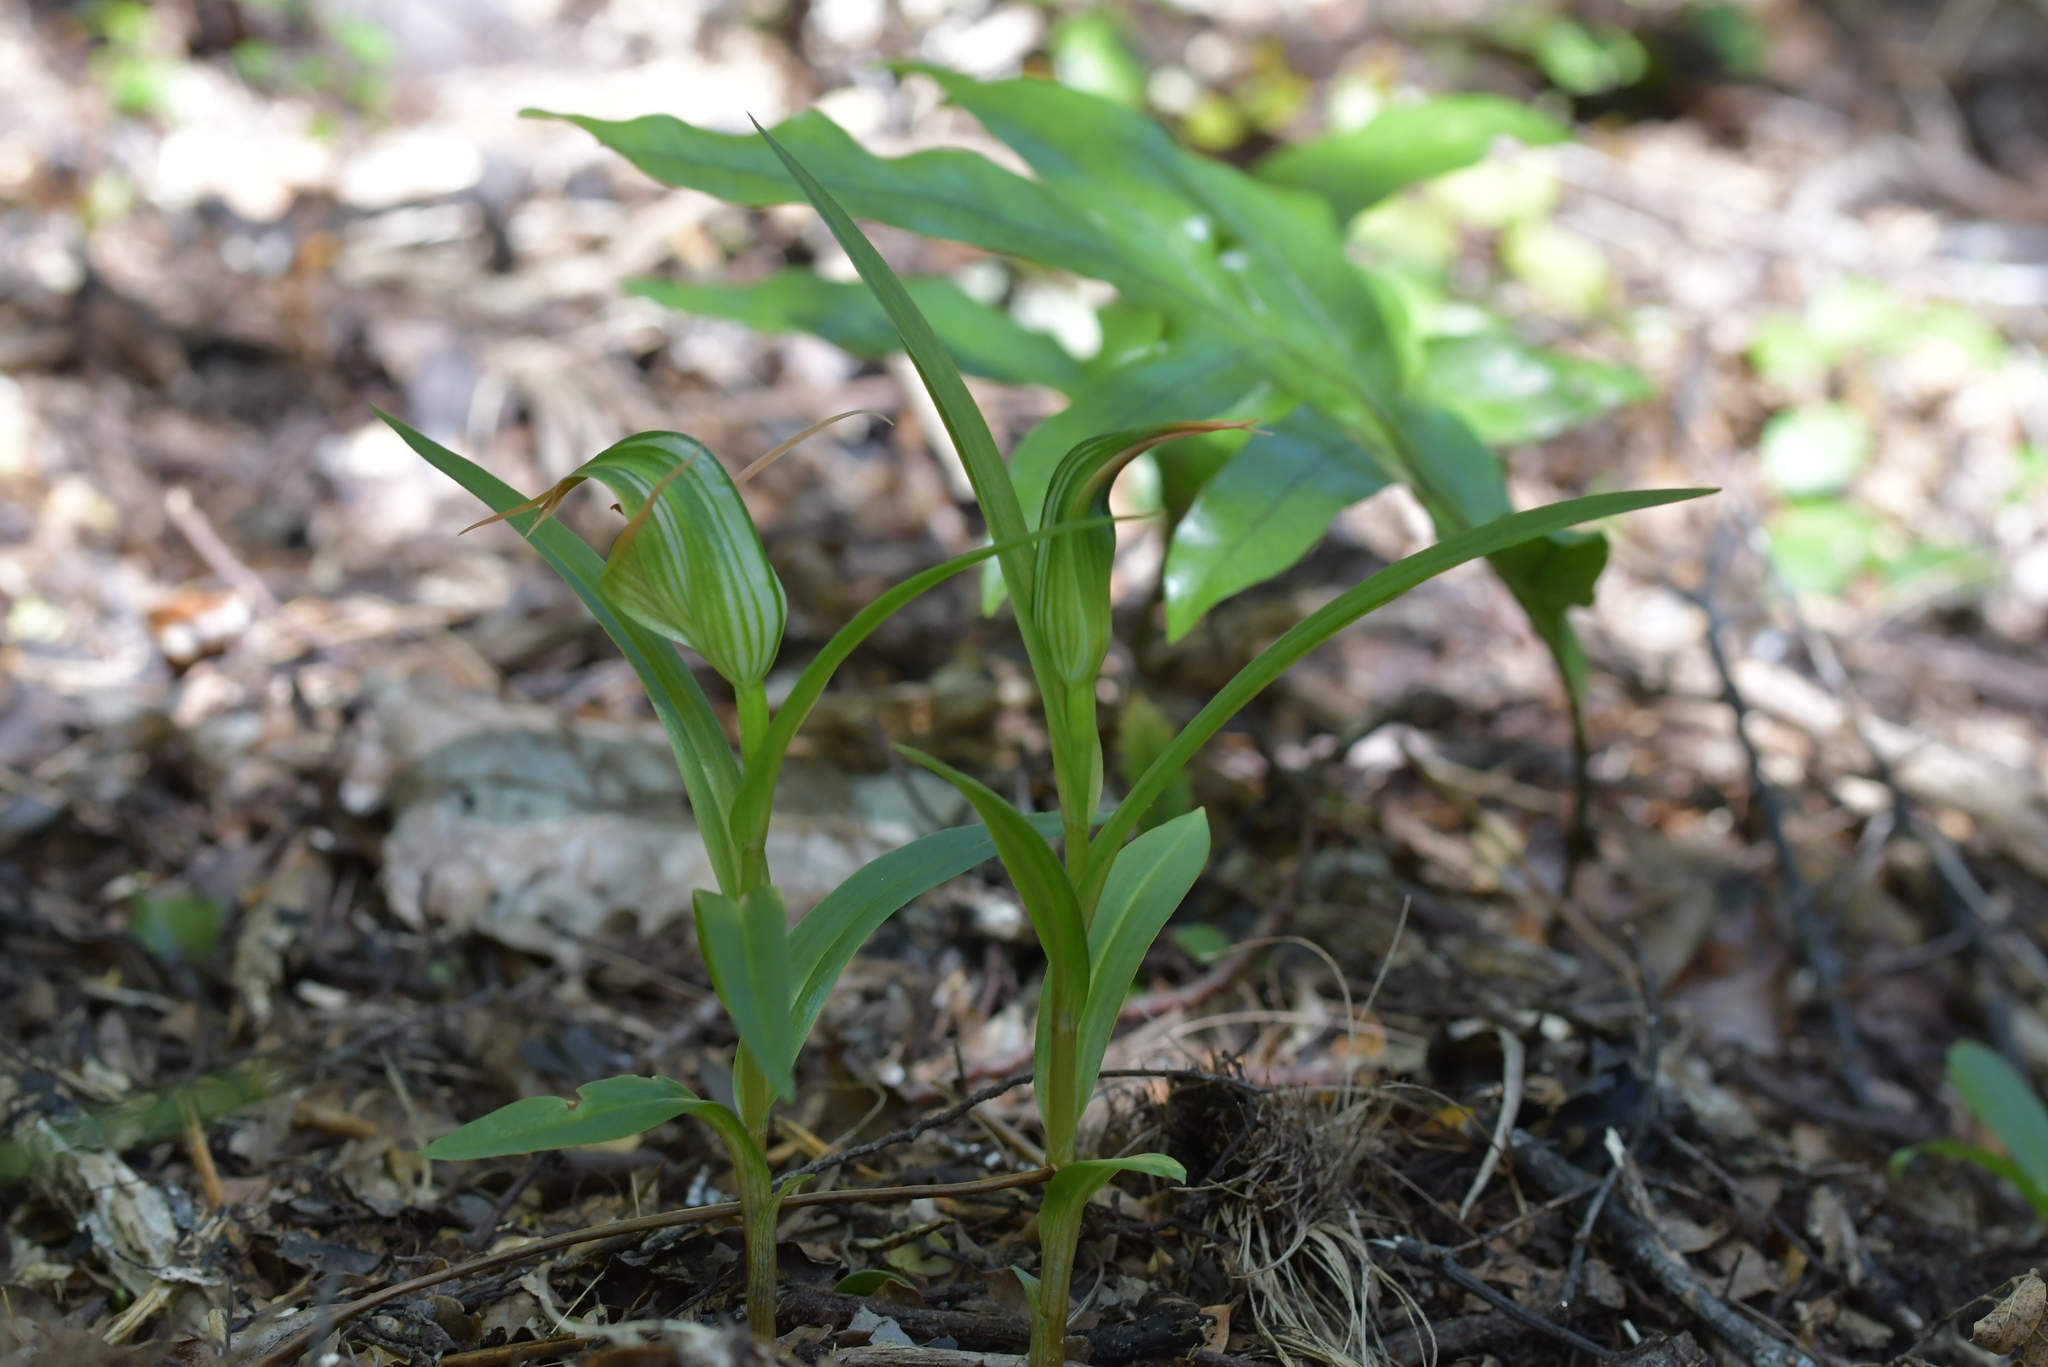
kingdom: Plantae
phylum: Tracheophyta
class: Liliopsida
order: Asparagales
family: Orchidaceae
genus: Pterostylis
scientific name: Pterostylis banksii
